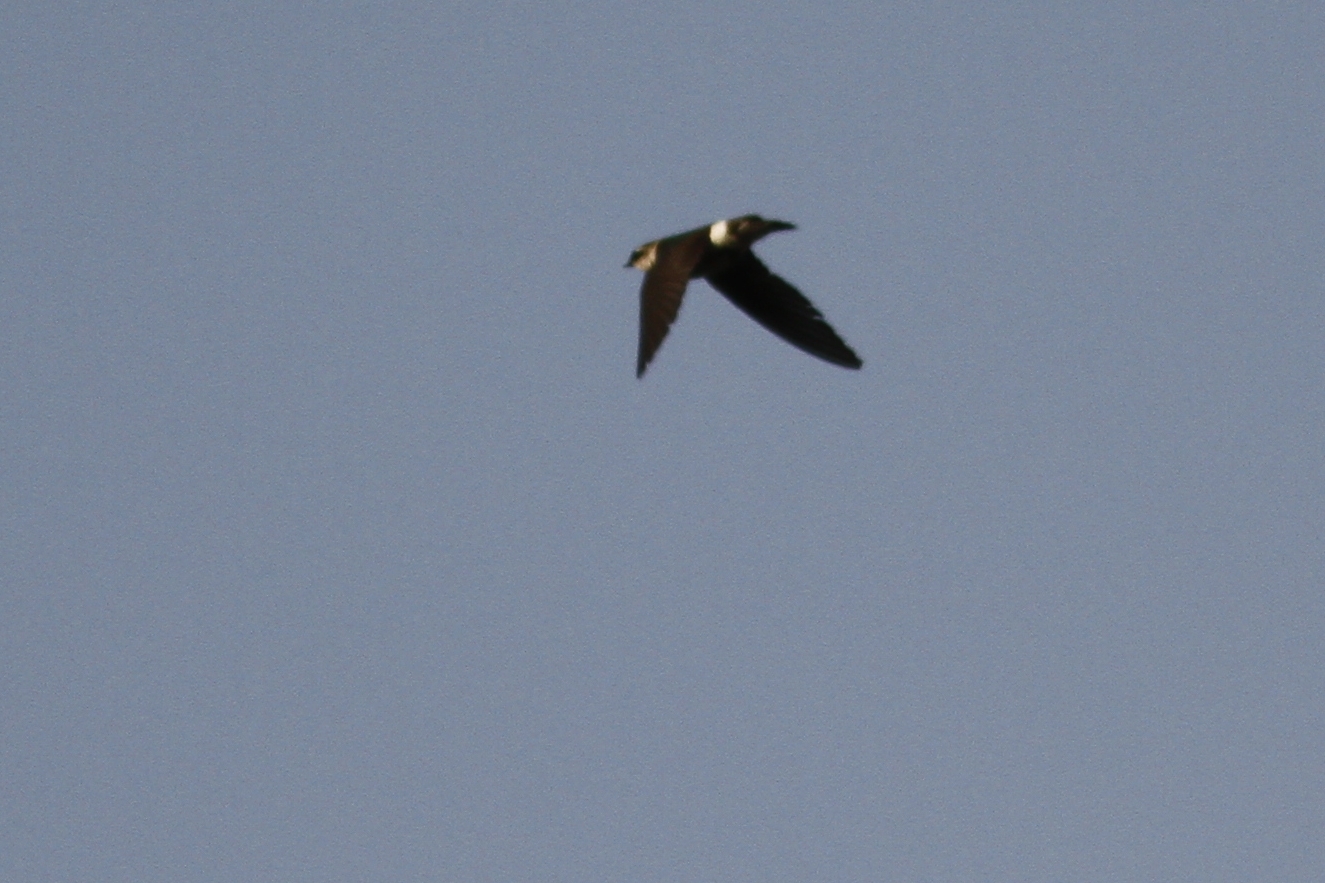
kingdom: Animalia
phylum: Chordata
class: Aves
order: Passeriformes
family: Hirundinidae
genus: Tachycineta
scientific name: Tachycineta thalassina
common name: Violet-green swallow
